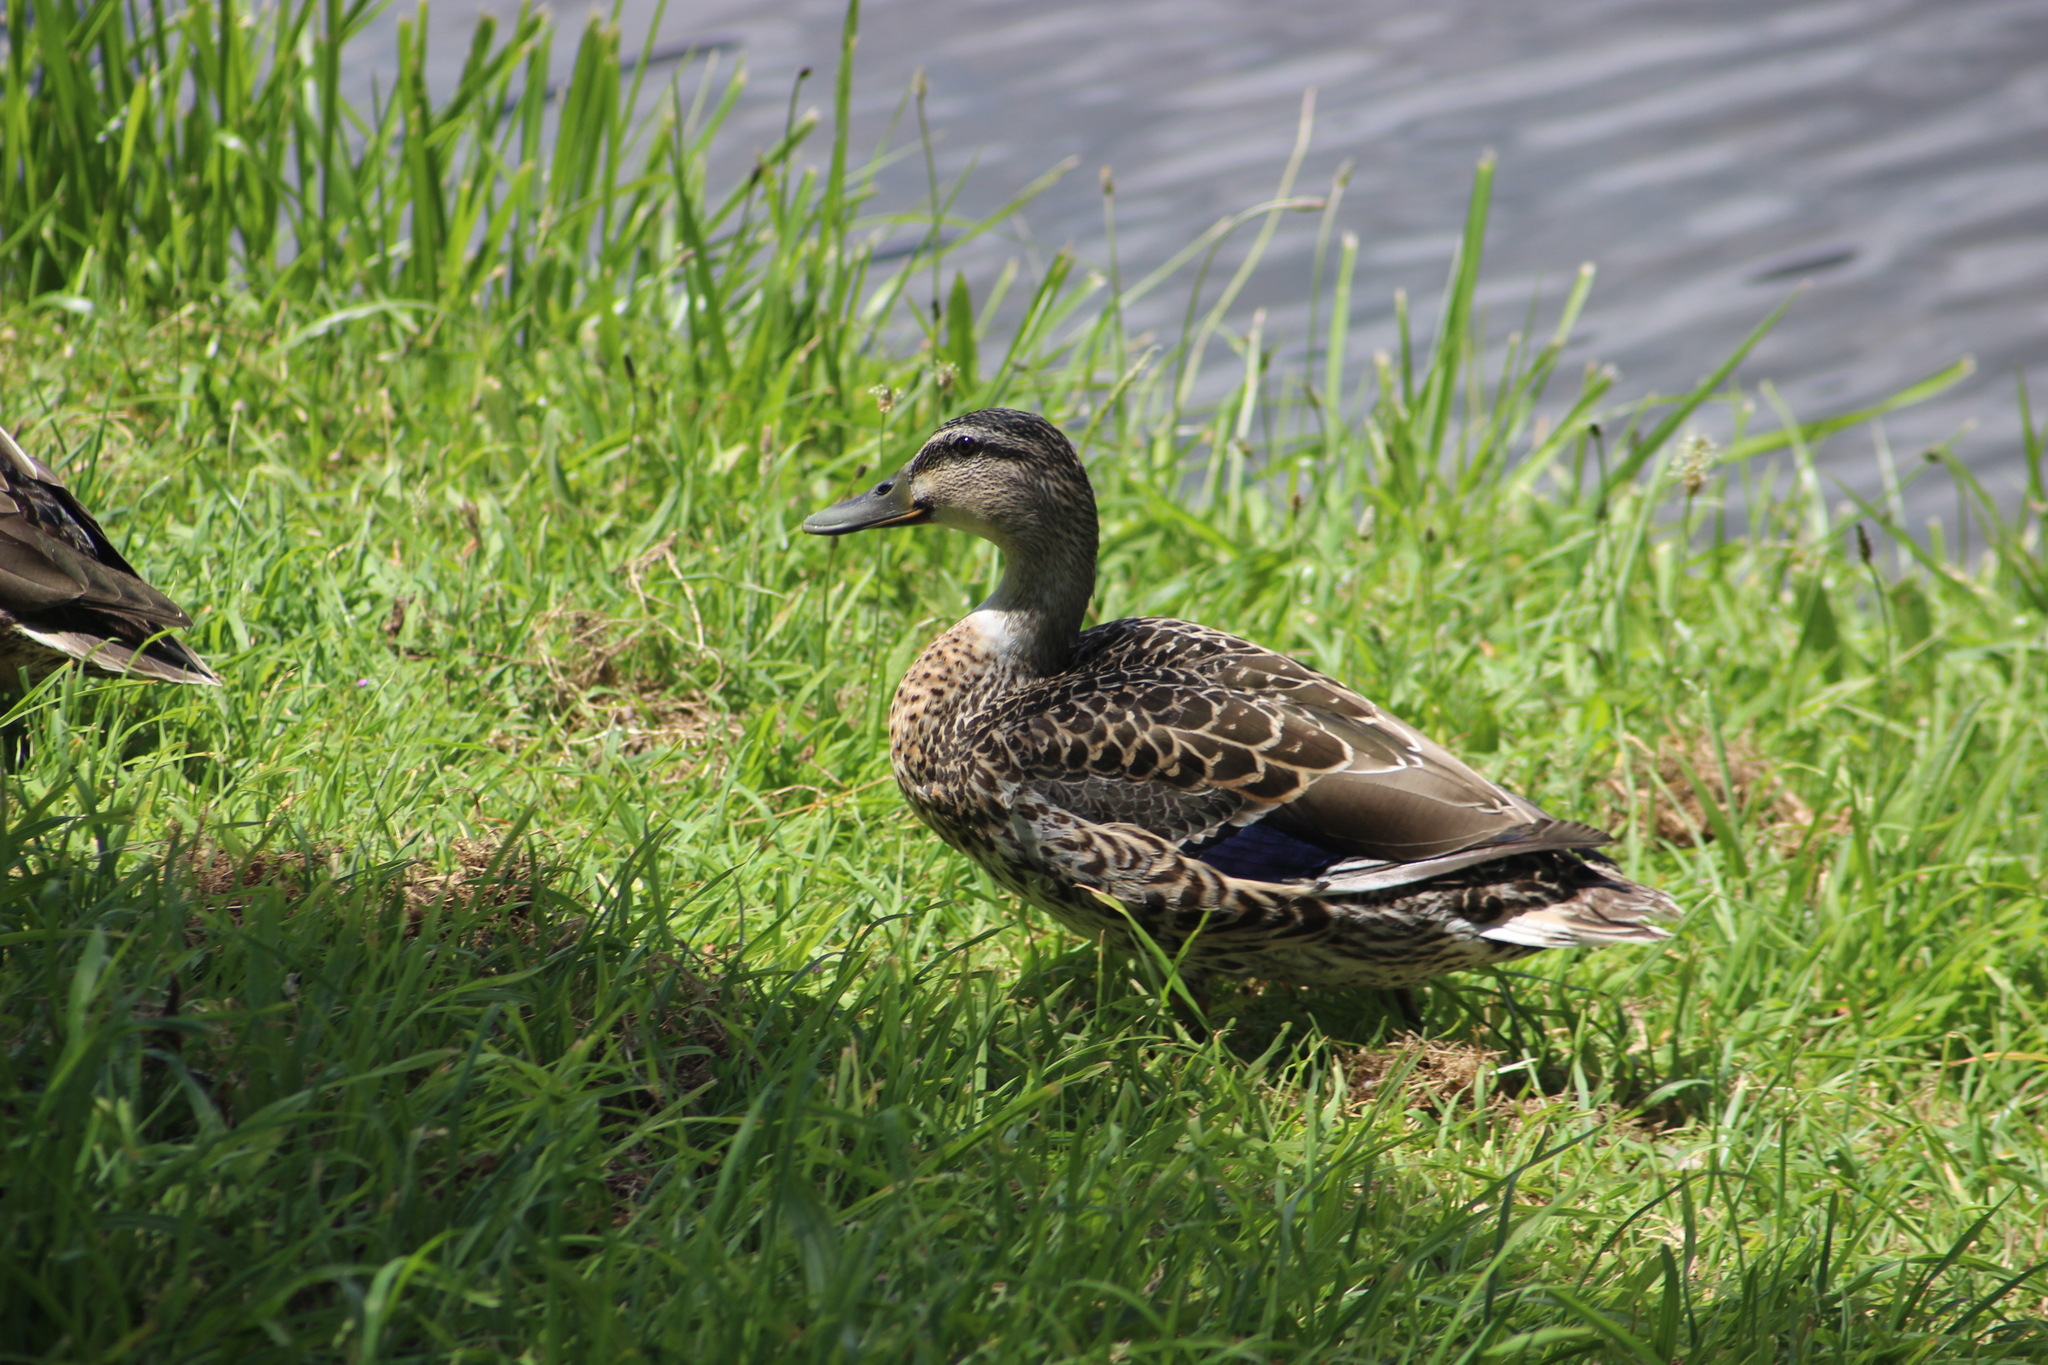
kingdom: Animalia
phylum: Chordata
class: Aves
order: Anseriformes
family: Anatidae
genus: Anas
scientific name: Anas platyrhynchos
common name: Mallard
